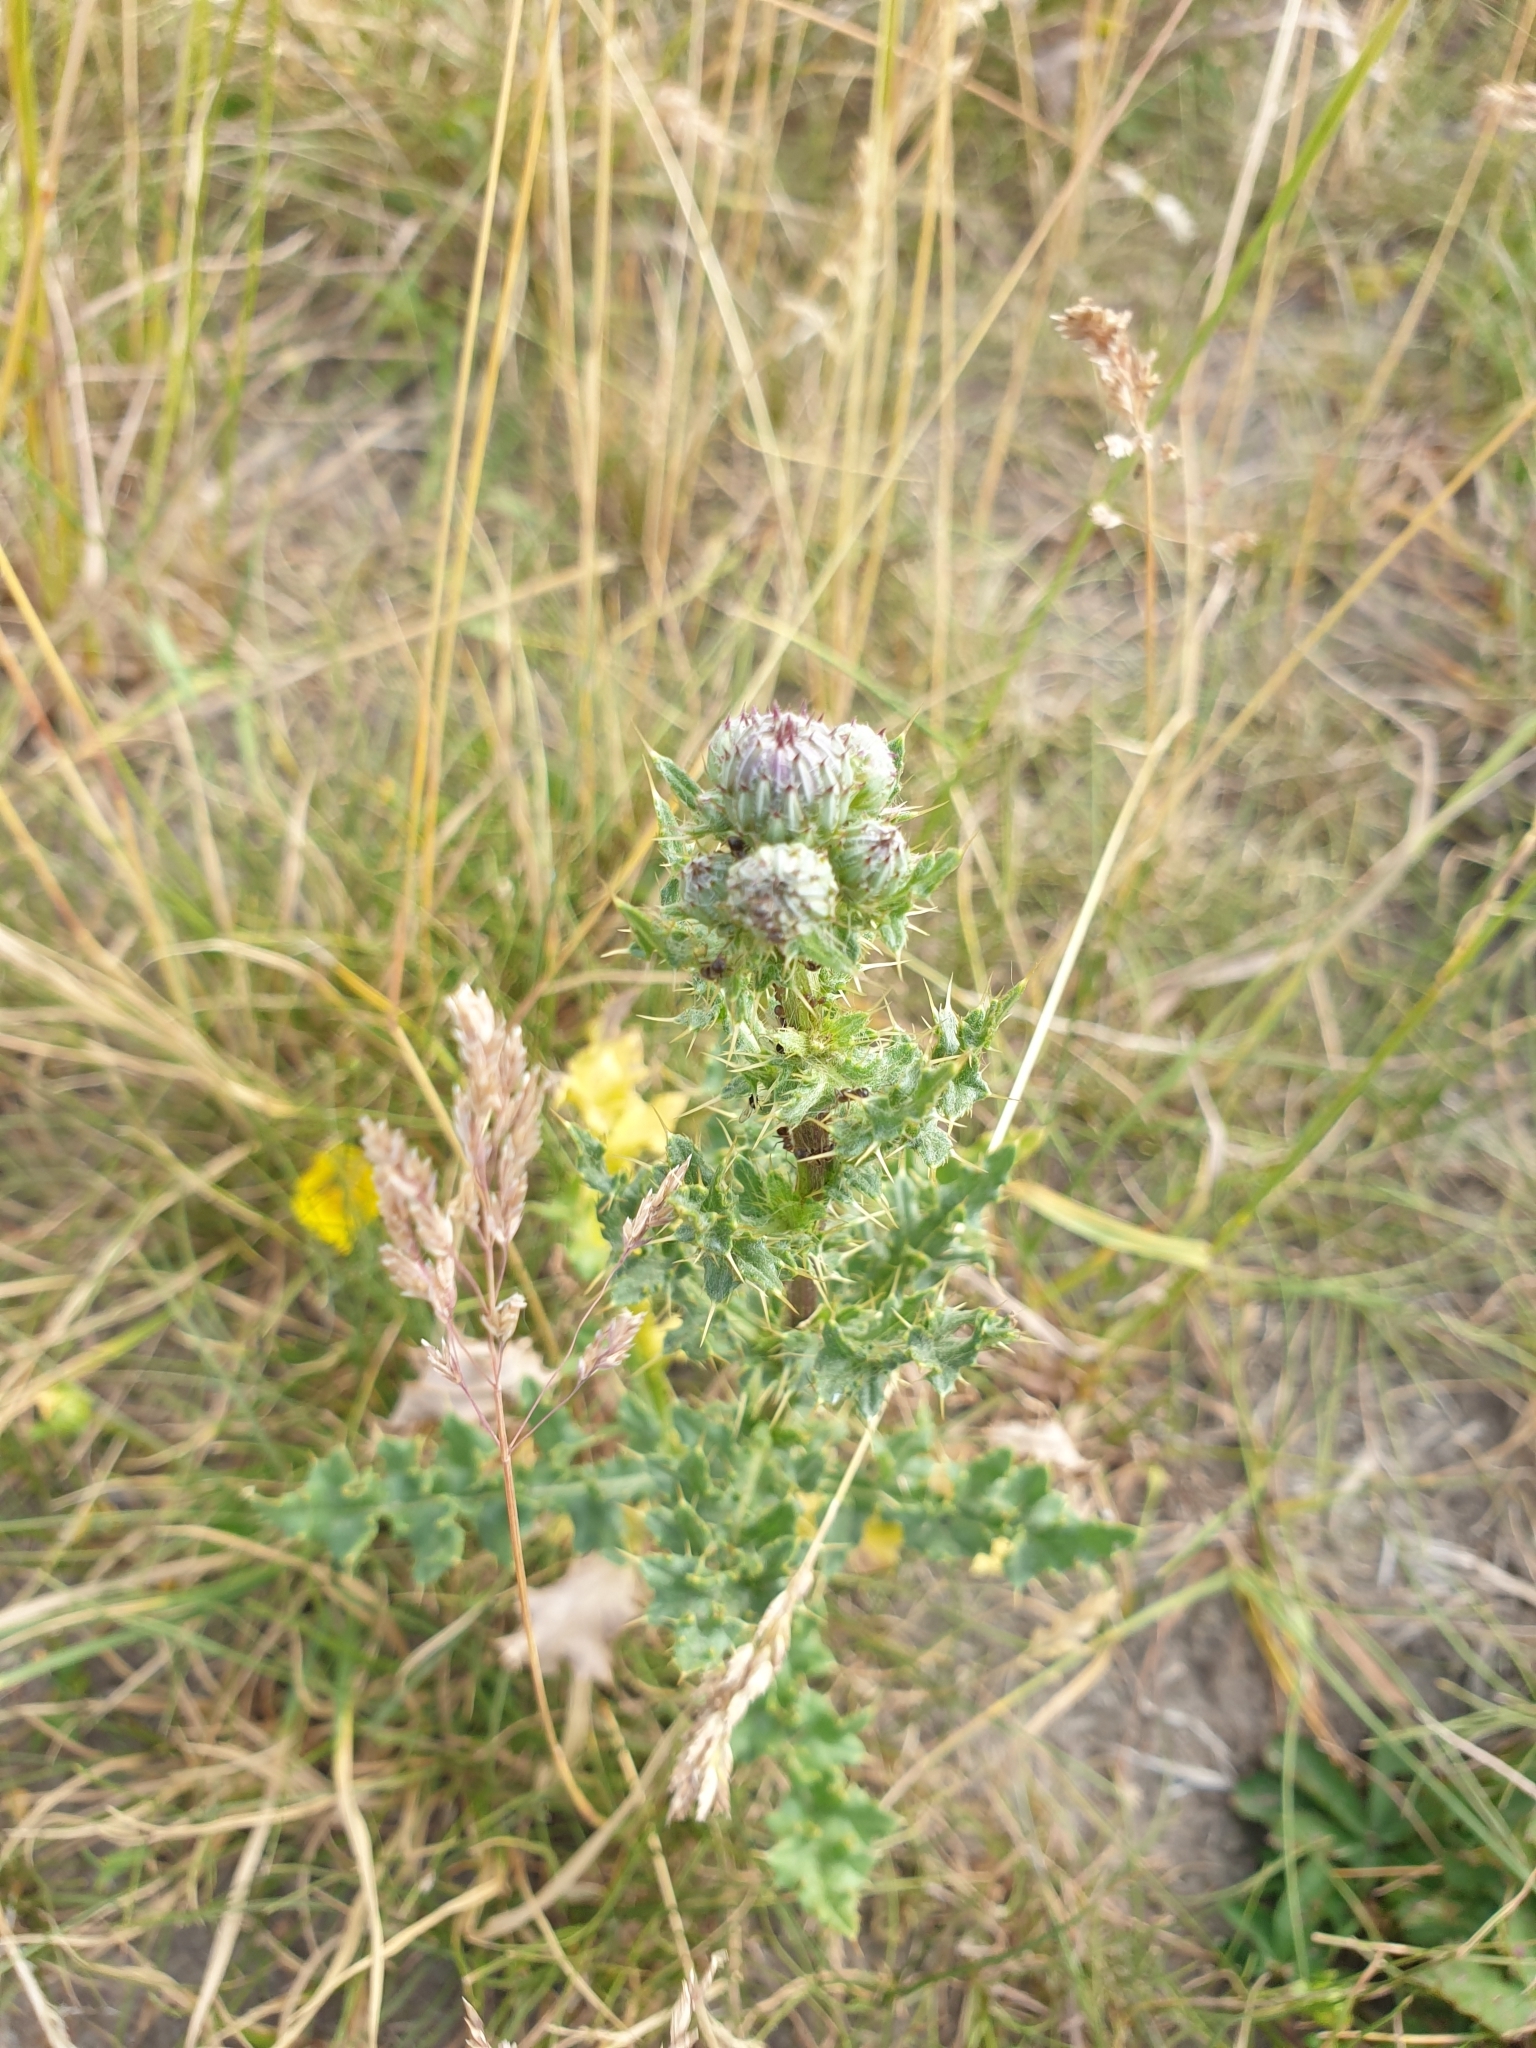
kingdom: Plantae
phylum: Tracheophyta
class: Magnoliopsida
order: Asterales
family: Asteraceae
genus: Cirsium
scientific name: Cirsium arvense
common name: Creeping thistle
